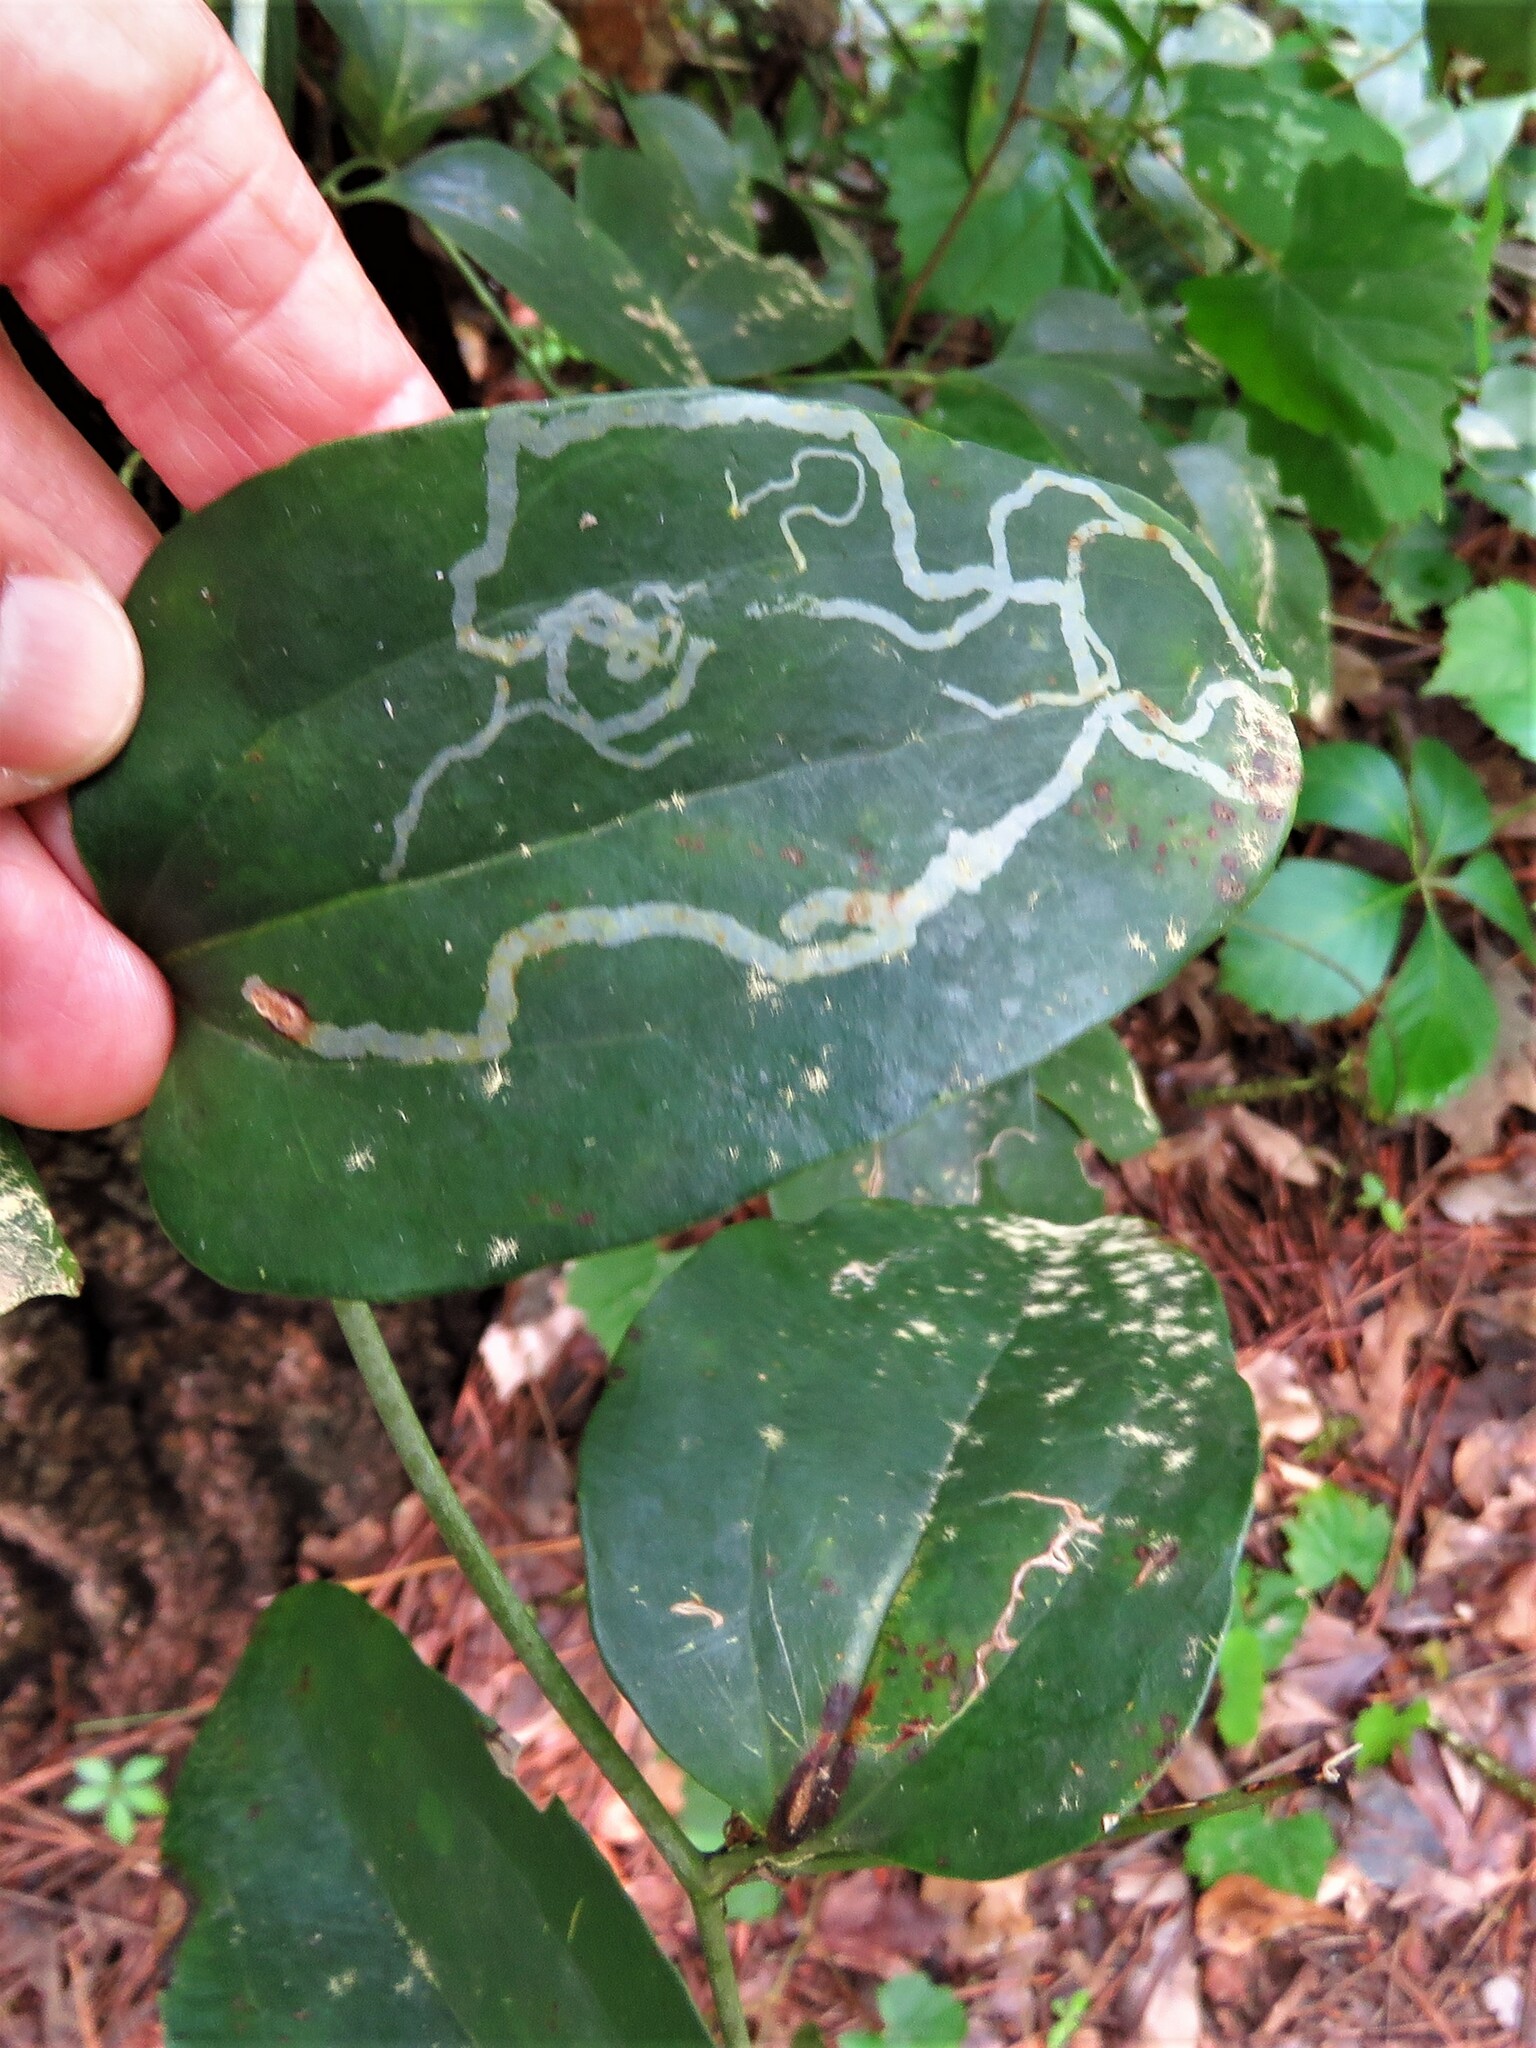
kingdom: Animalia
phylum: Arthropoda
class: Insecta
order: Diptera
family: Agromyzidae
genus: Liriomyza
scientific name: Liriomyza schmidti
